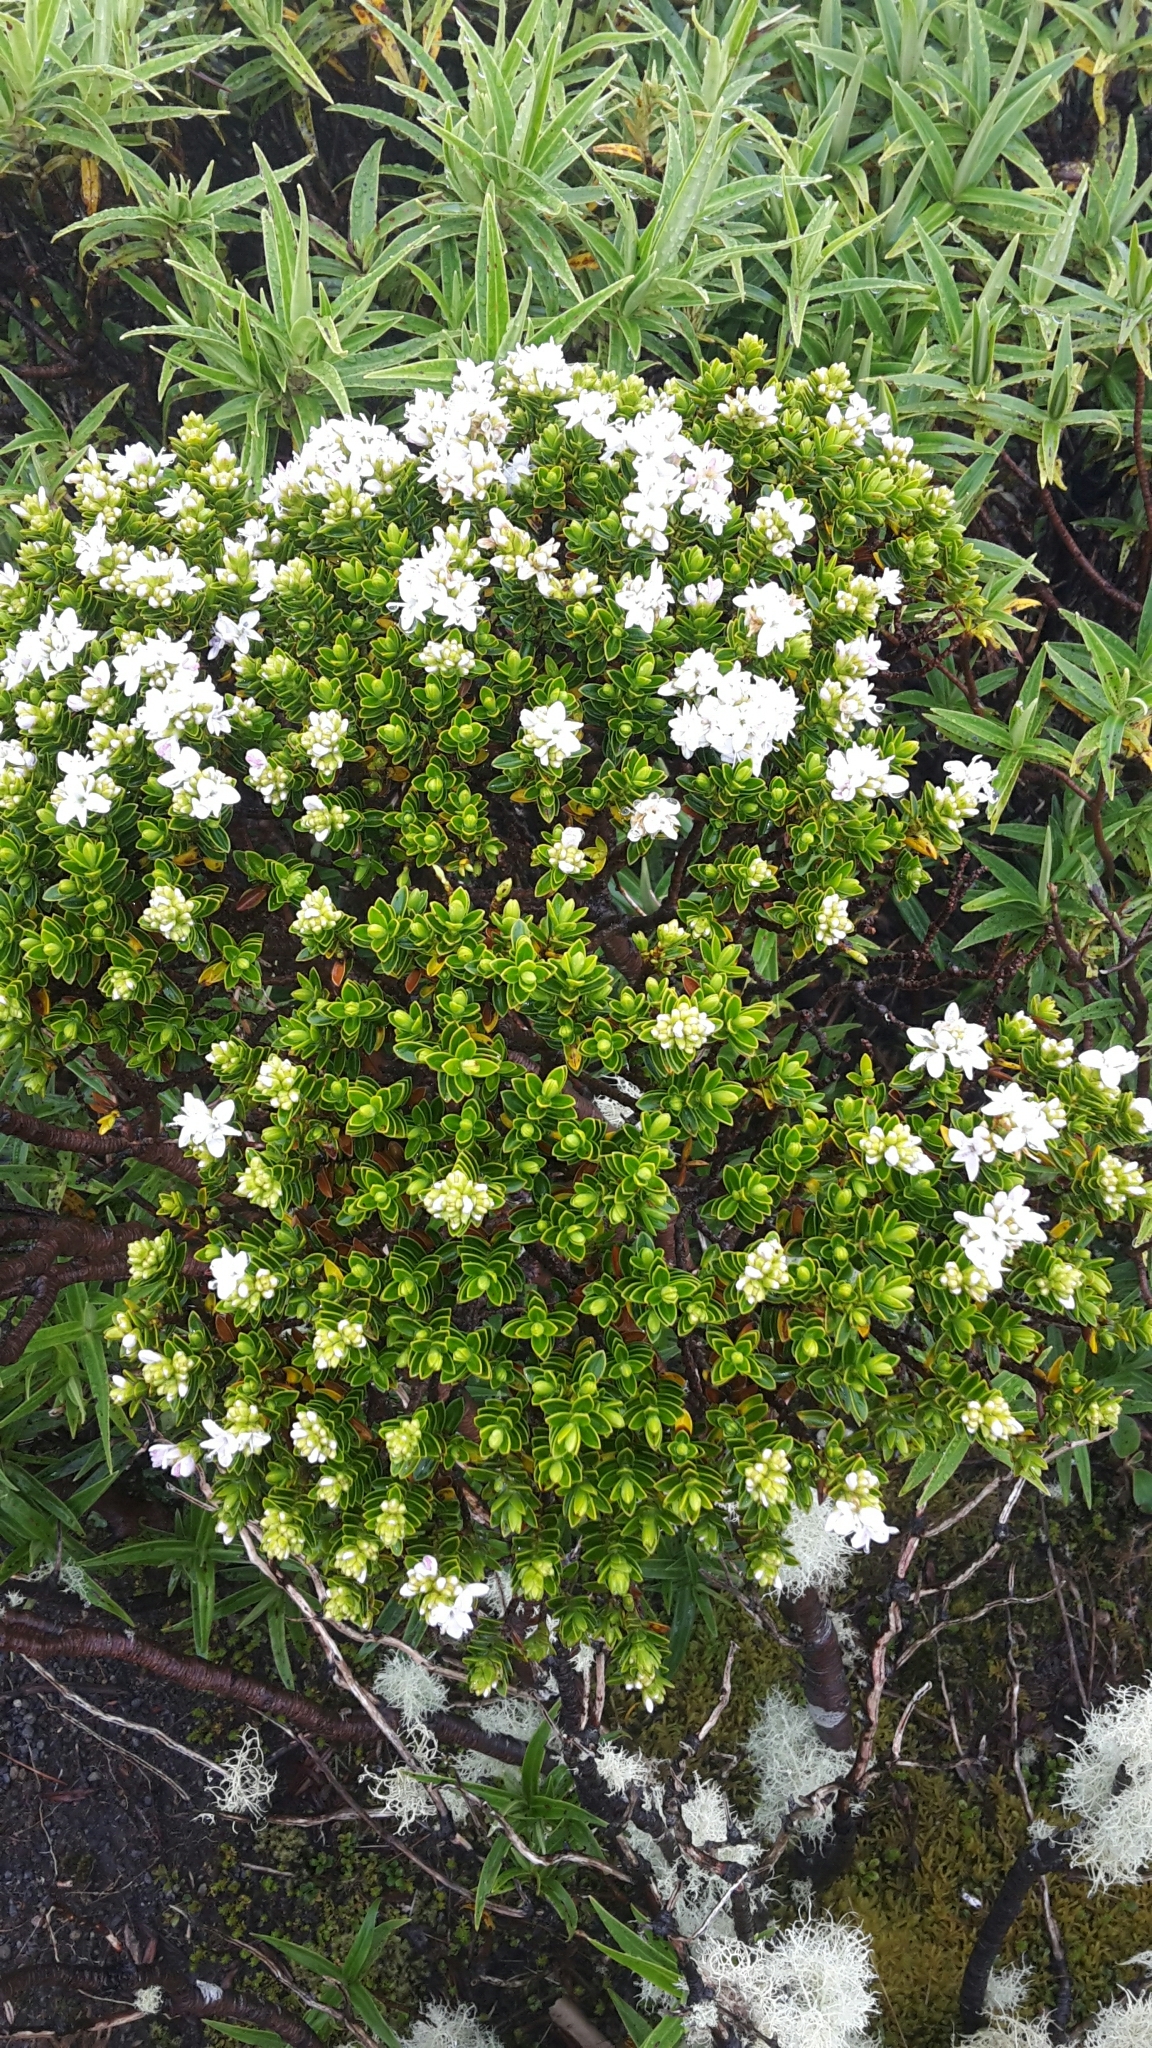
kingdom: Plantae
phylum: Tracheophyta
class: Magnoliopsida
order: Lamiales
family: Plantaginaceae
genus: Veronica
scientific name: Veronica odora
